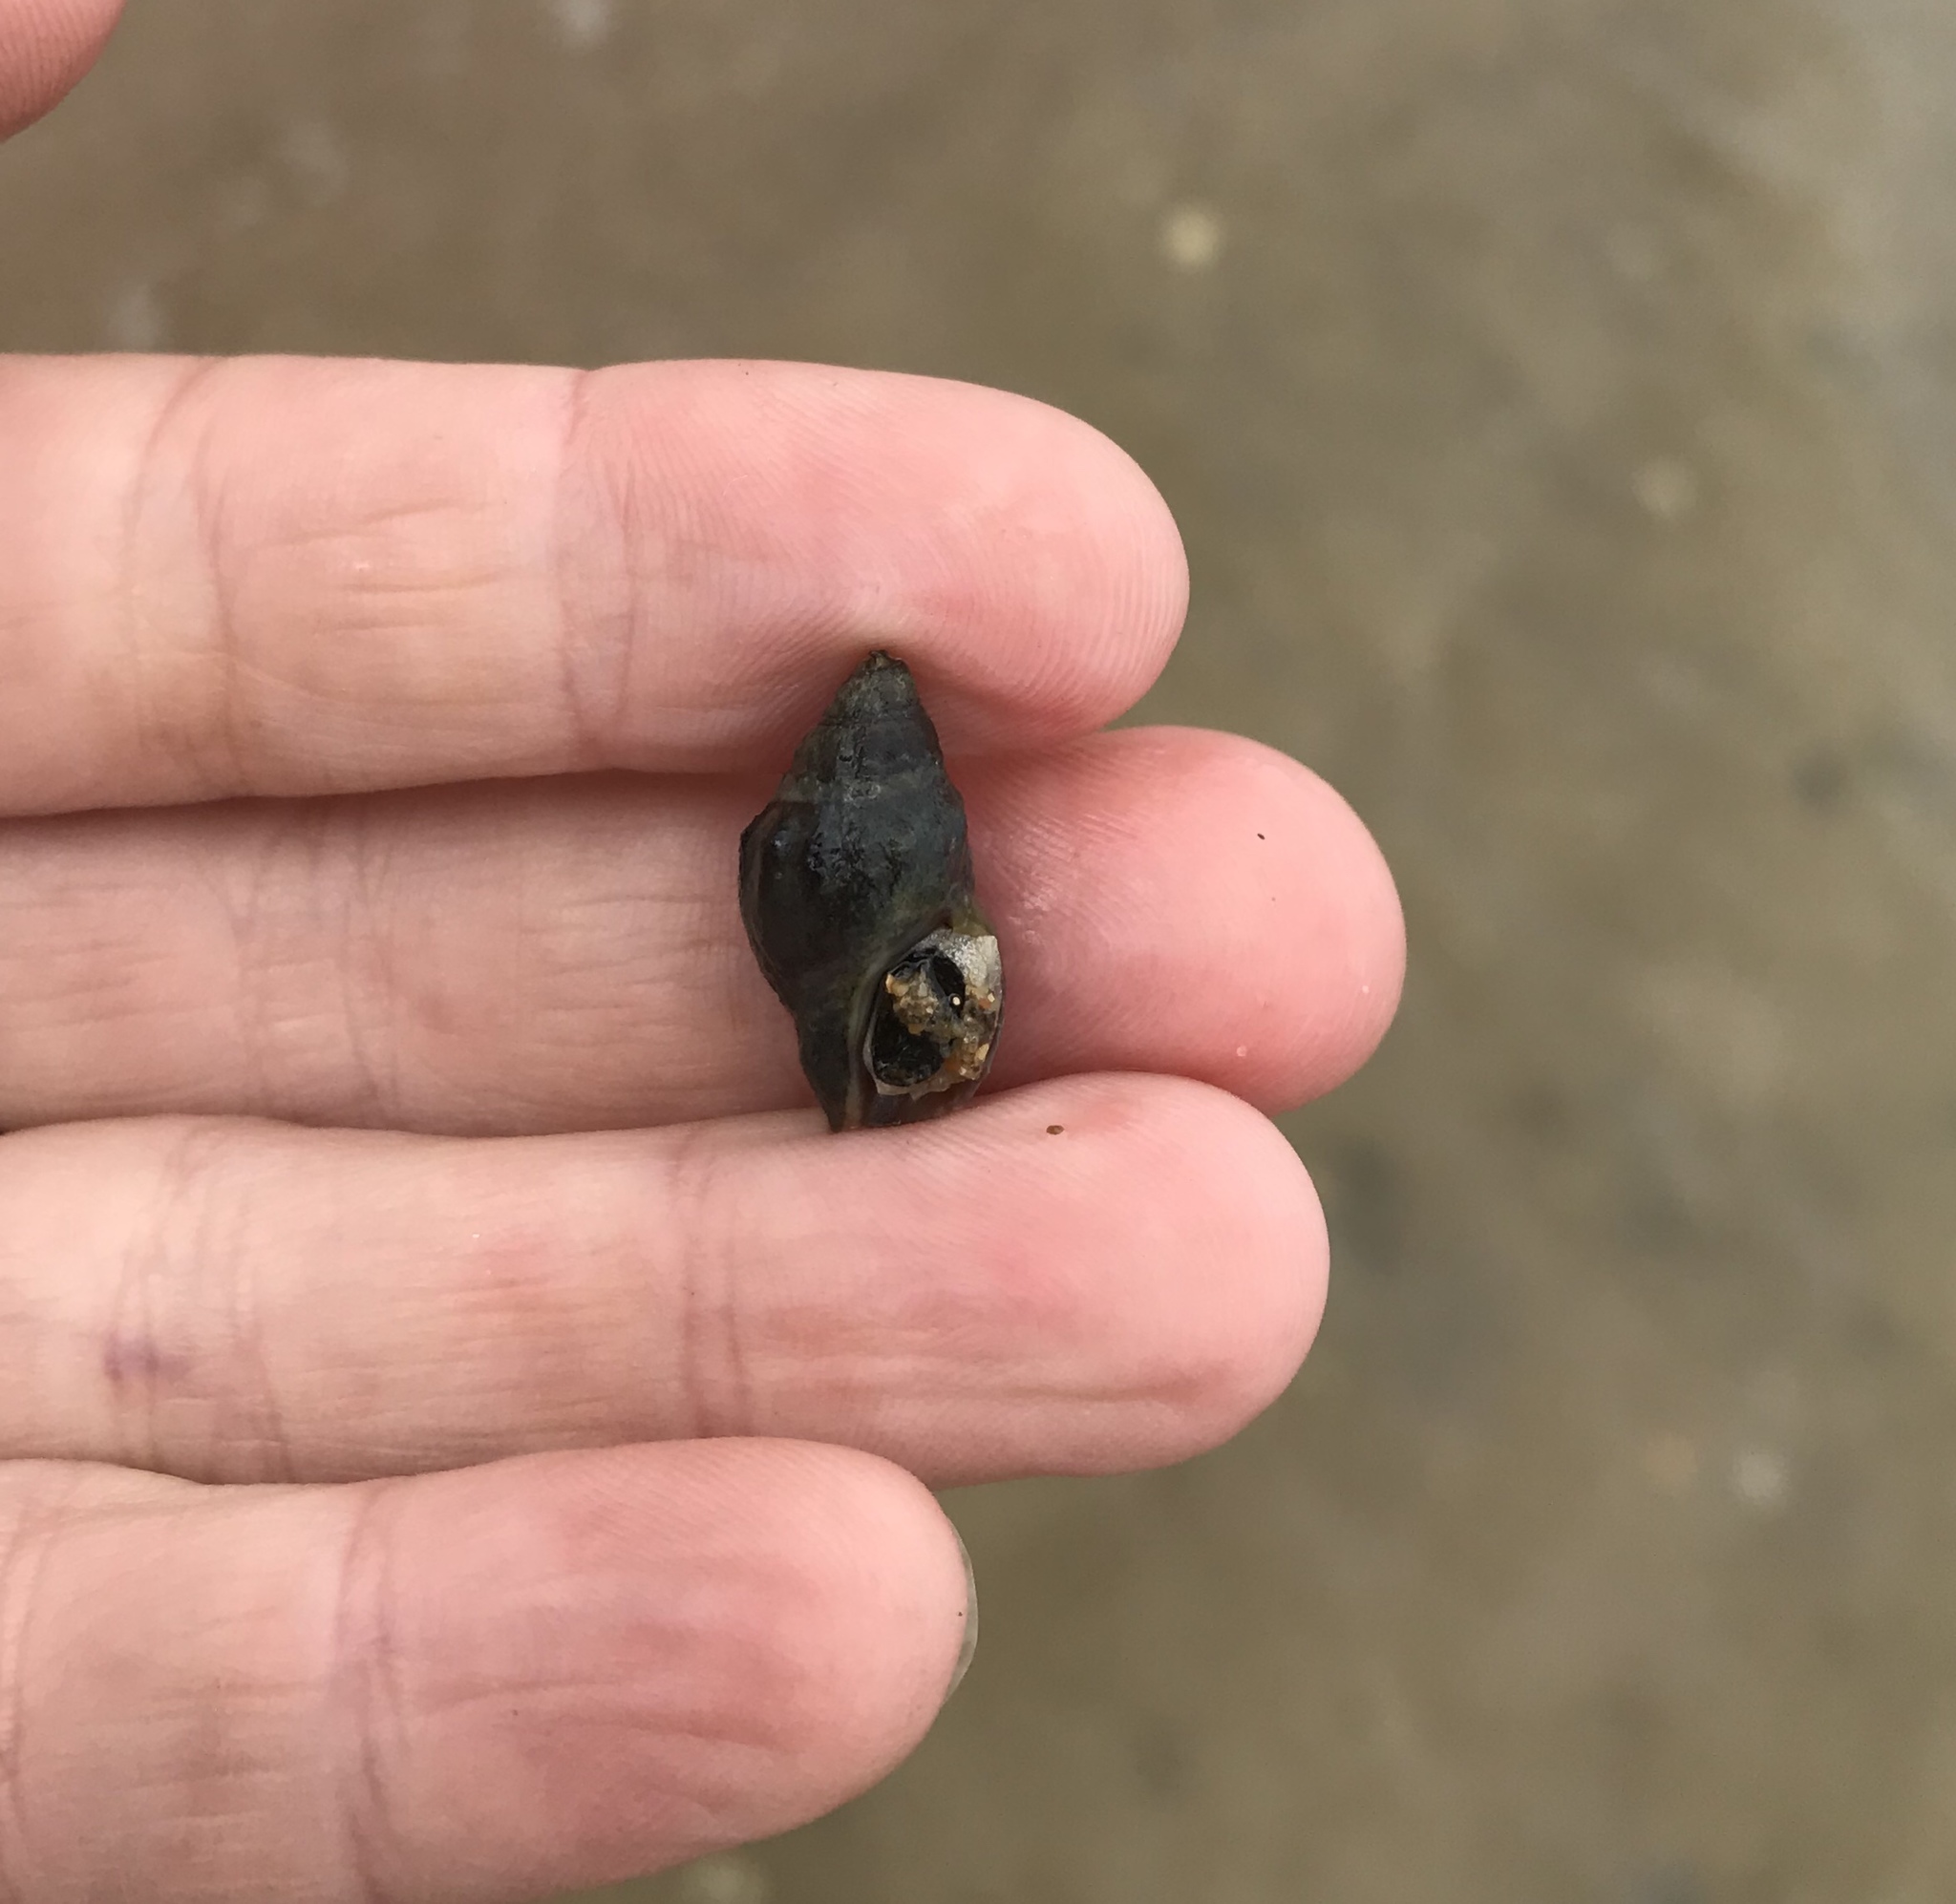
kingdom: Animalia
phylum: Mollusca
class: Gastropoda
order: Neogastropoda
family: Cominellidae
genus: Cominella
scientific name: Cominella glandiformis
